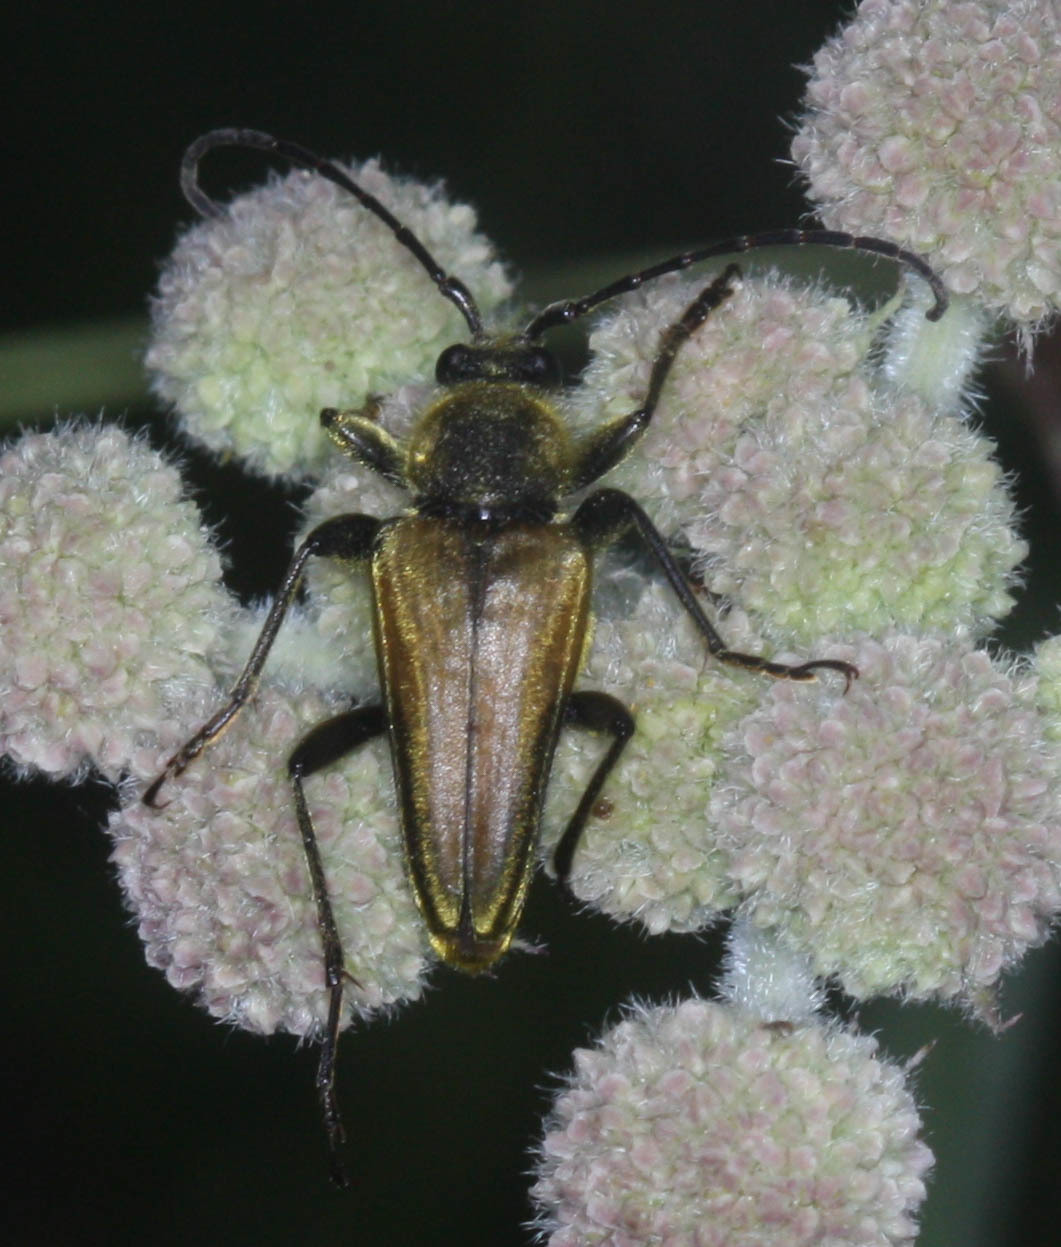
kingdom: Animalia
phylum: Arthropoda
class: Insecta
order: Coleoptera
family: Cerambycidae
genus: Cosmosalia
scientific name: Cosmosalia chrysocoma
